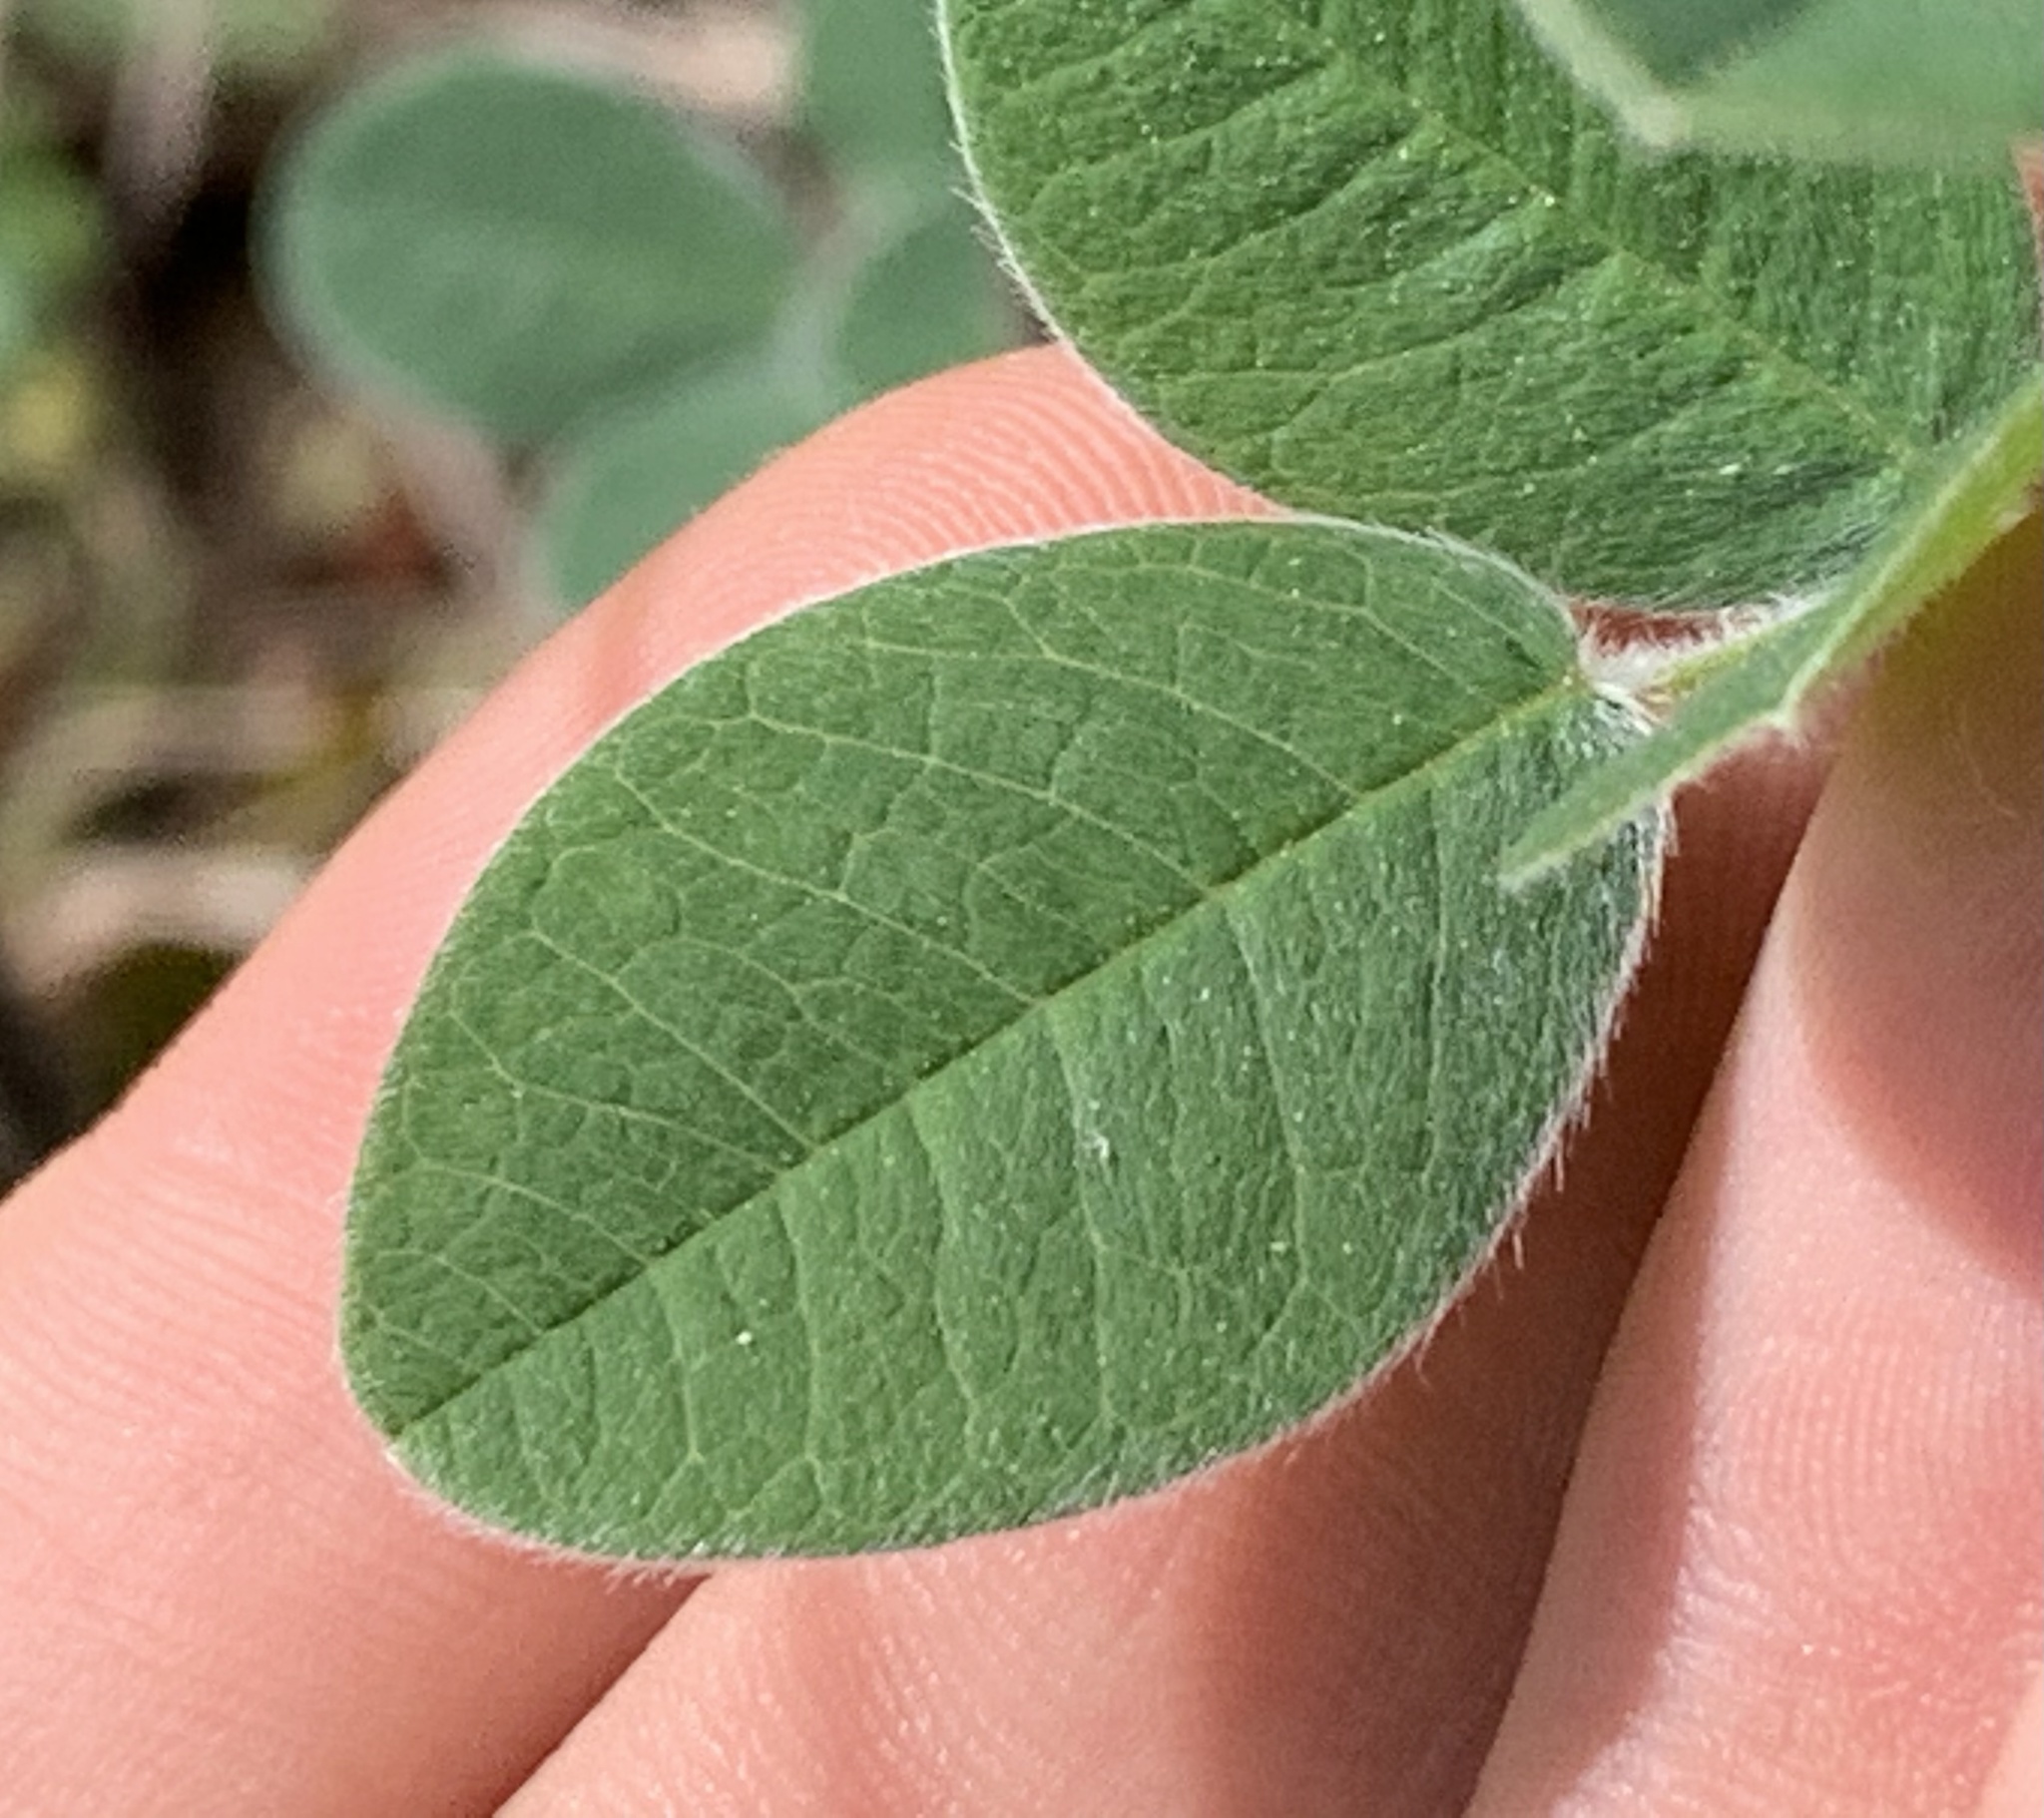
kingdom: Plantae
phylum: Tracheophyta
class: Magnoliopsida
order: Fabales
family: Fabaceae
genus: Lespedeza
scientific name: Lespedeza hirta
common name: Hairy lespedeza
